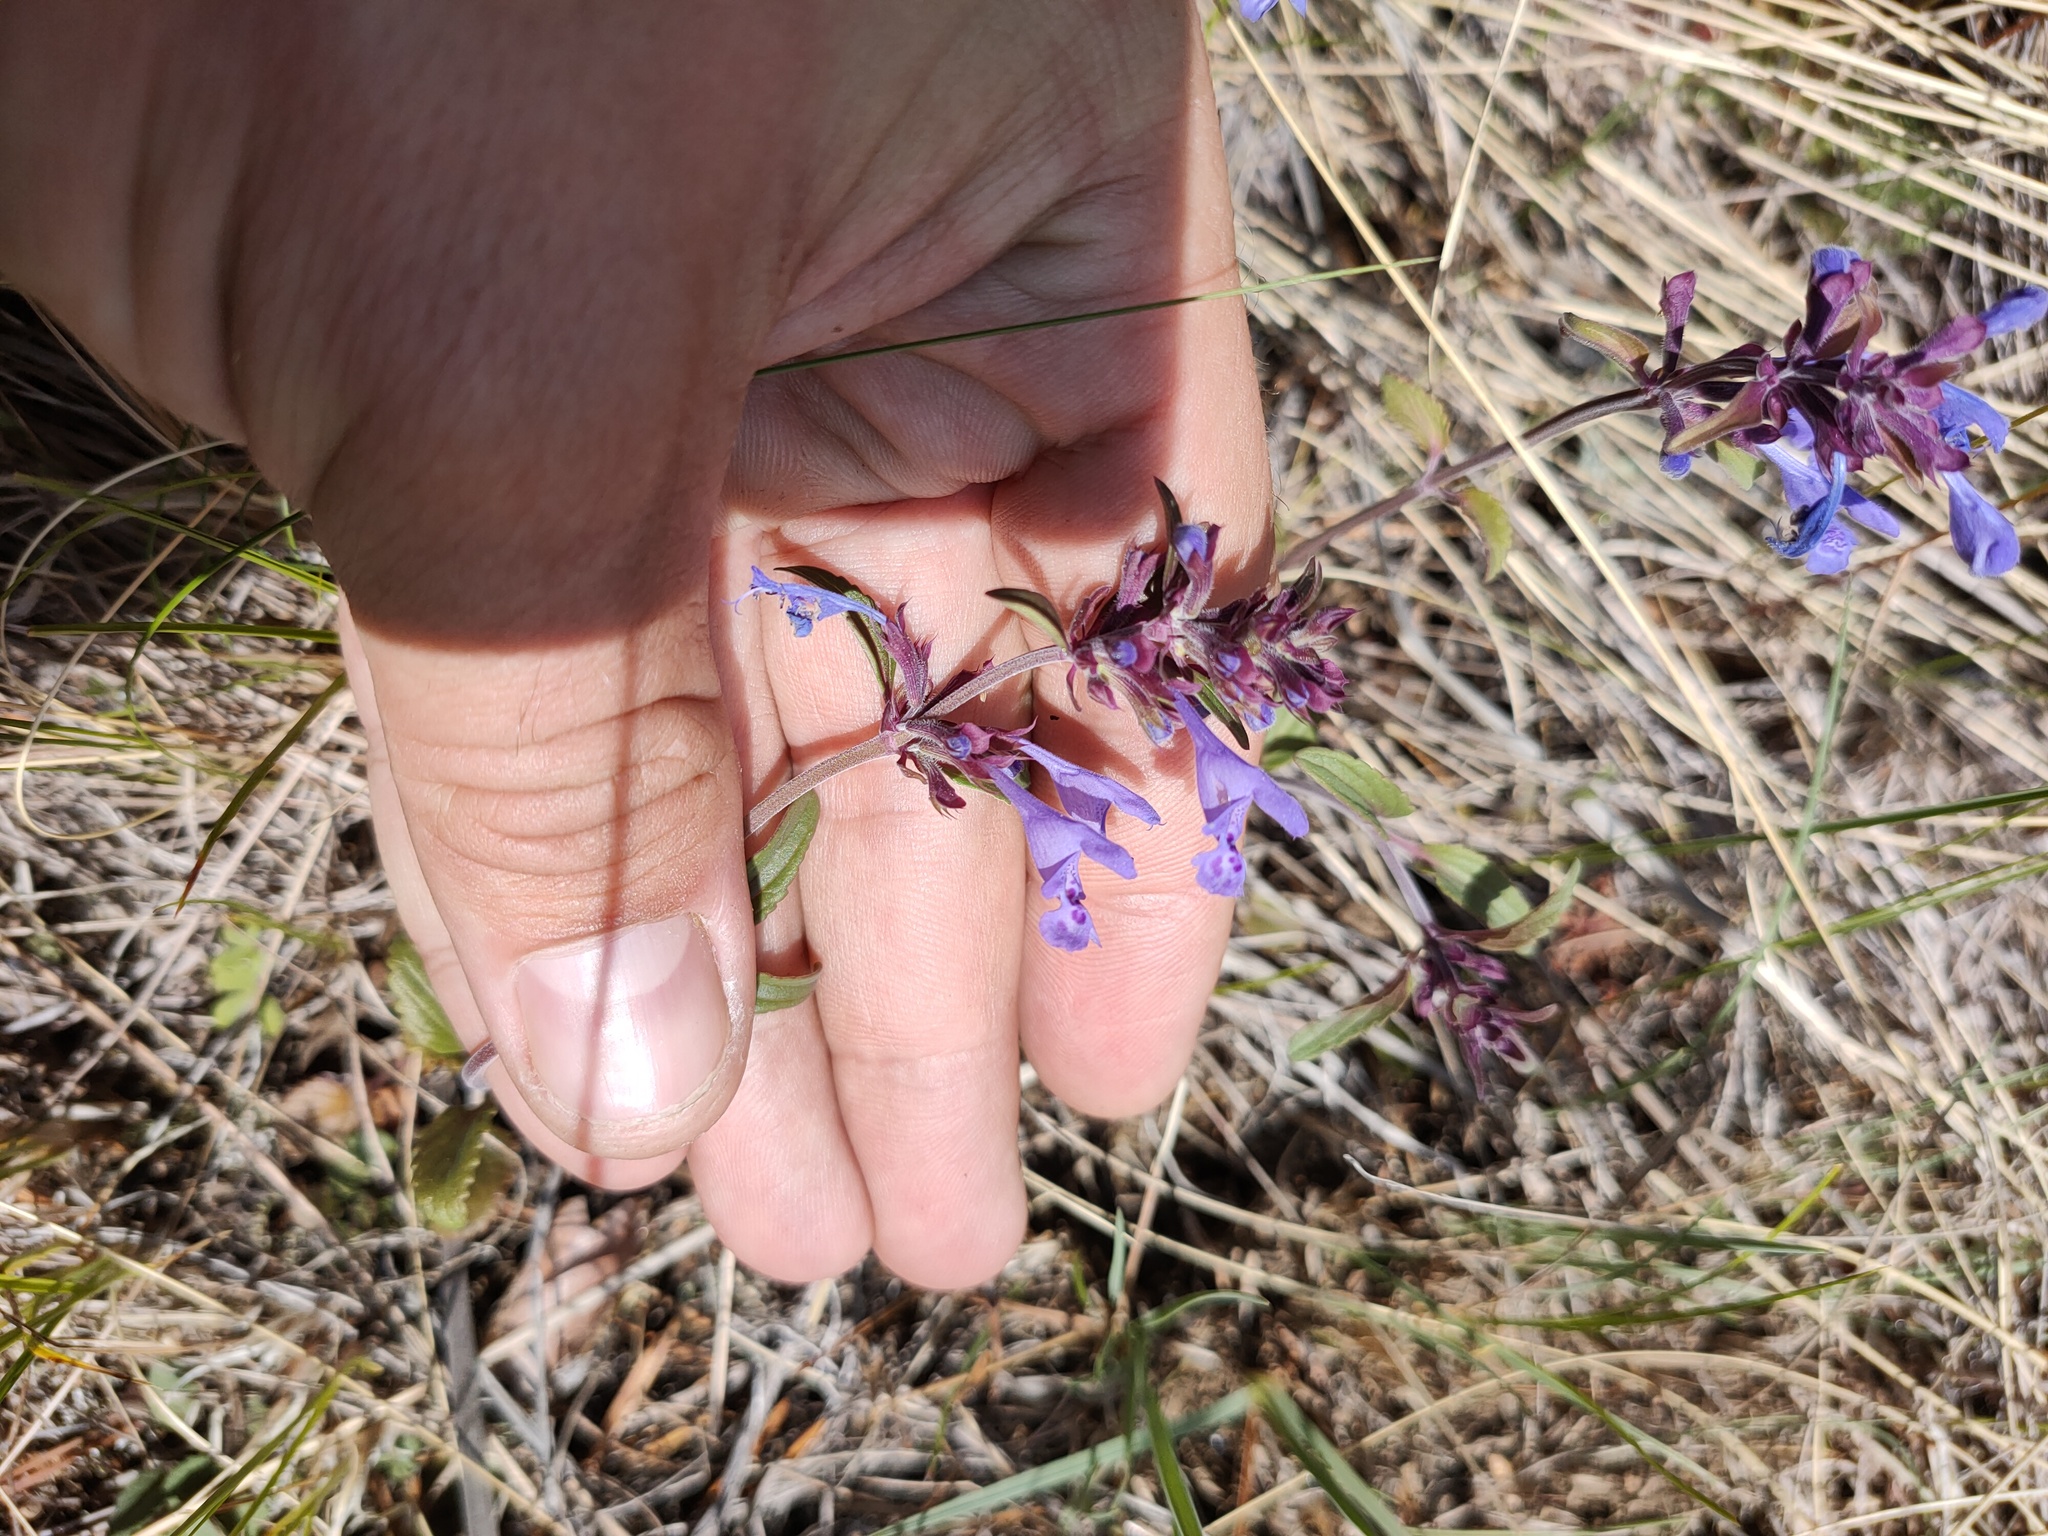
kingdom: Plantae
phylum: Tracheophyta
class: Magnoliopsida
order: Lamiales
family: Lamiaceae
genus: Dracocephalum
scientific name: Dracocephalum nutans
